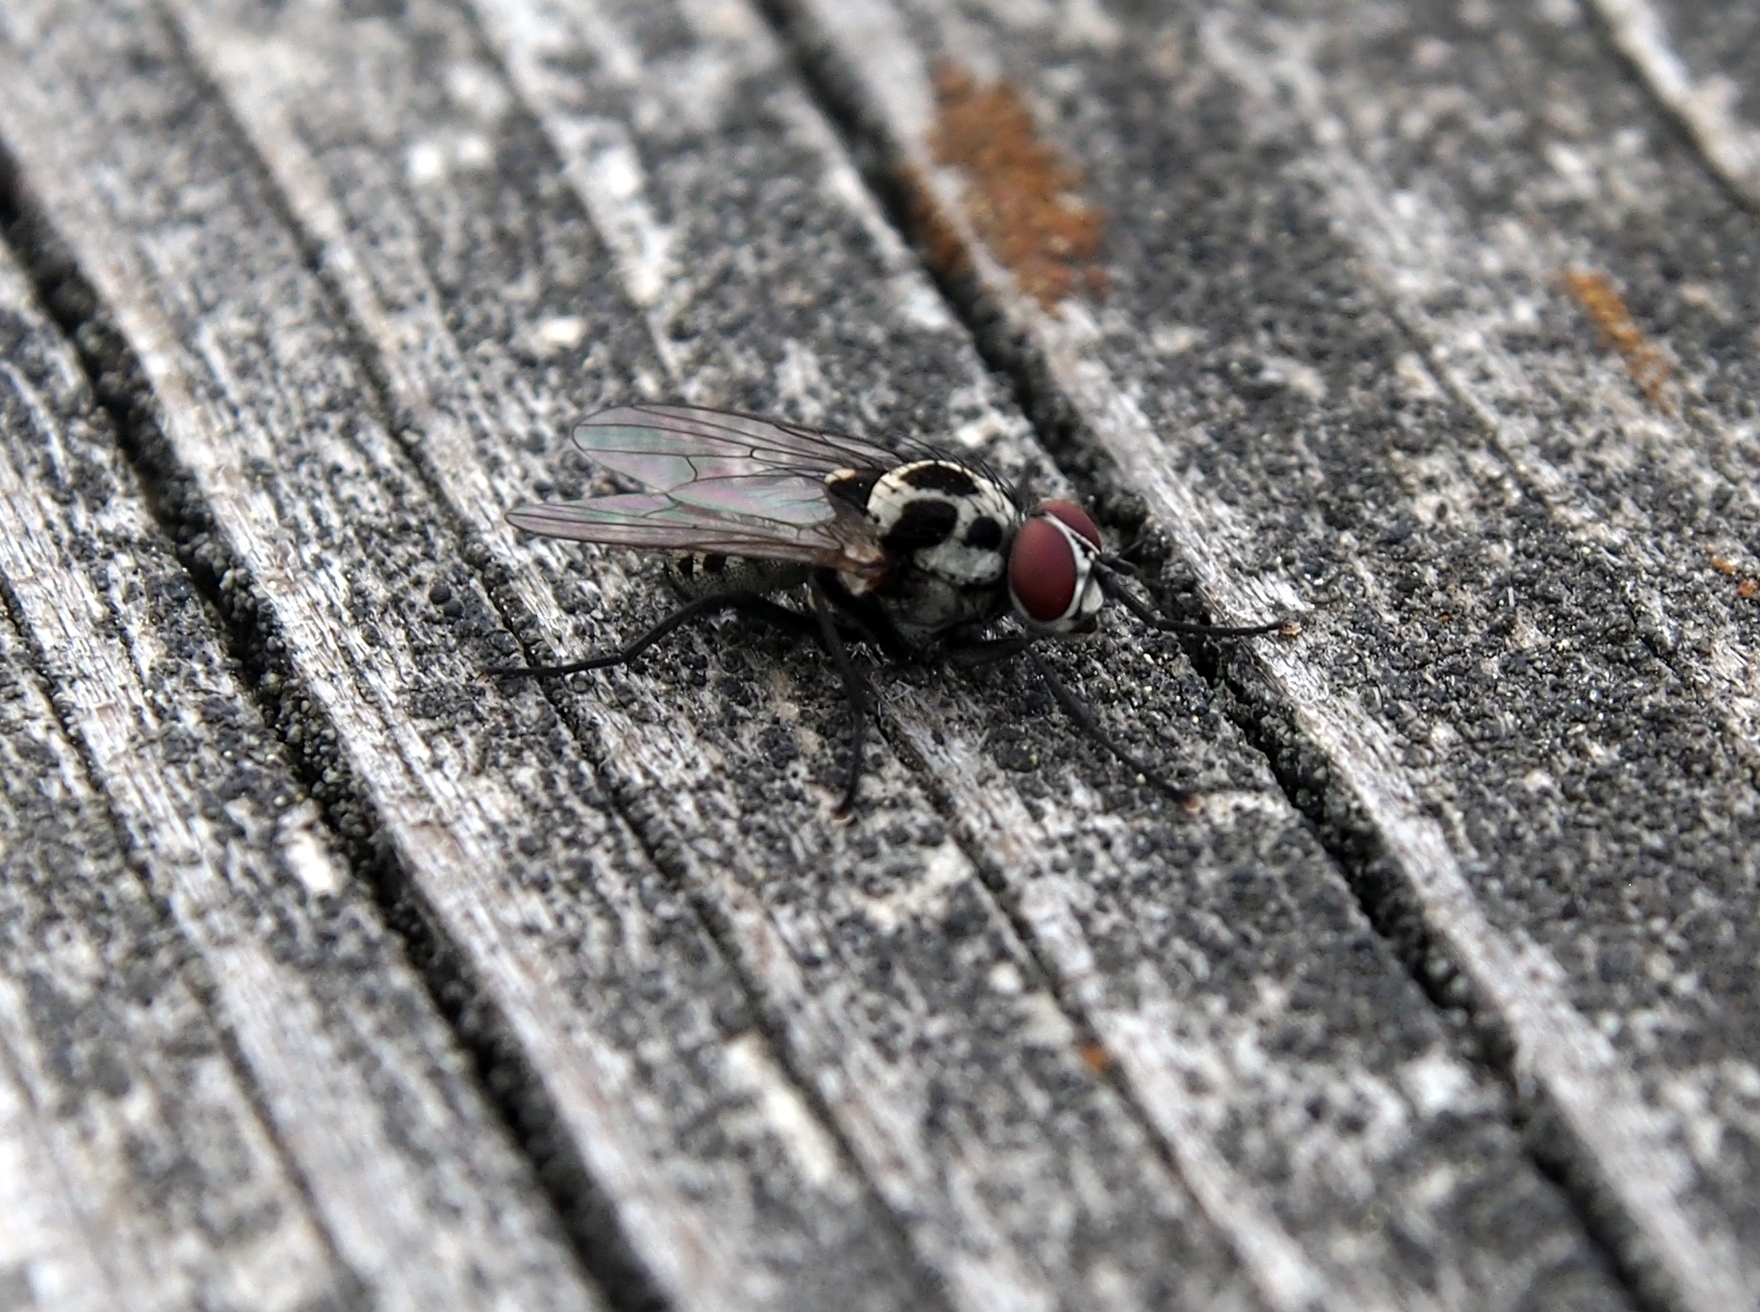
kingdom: Animalia
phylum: Arthropoda
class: Insecta
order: Diptera
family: Anthomyiidae
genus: Anthomyia
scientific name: Anthomyia procellaris
